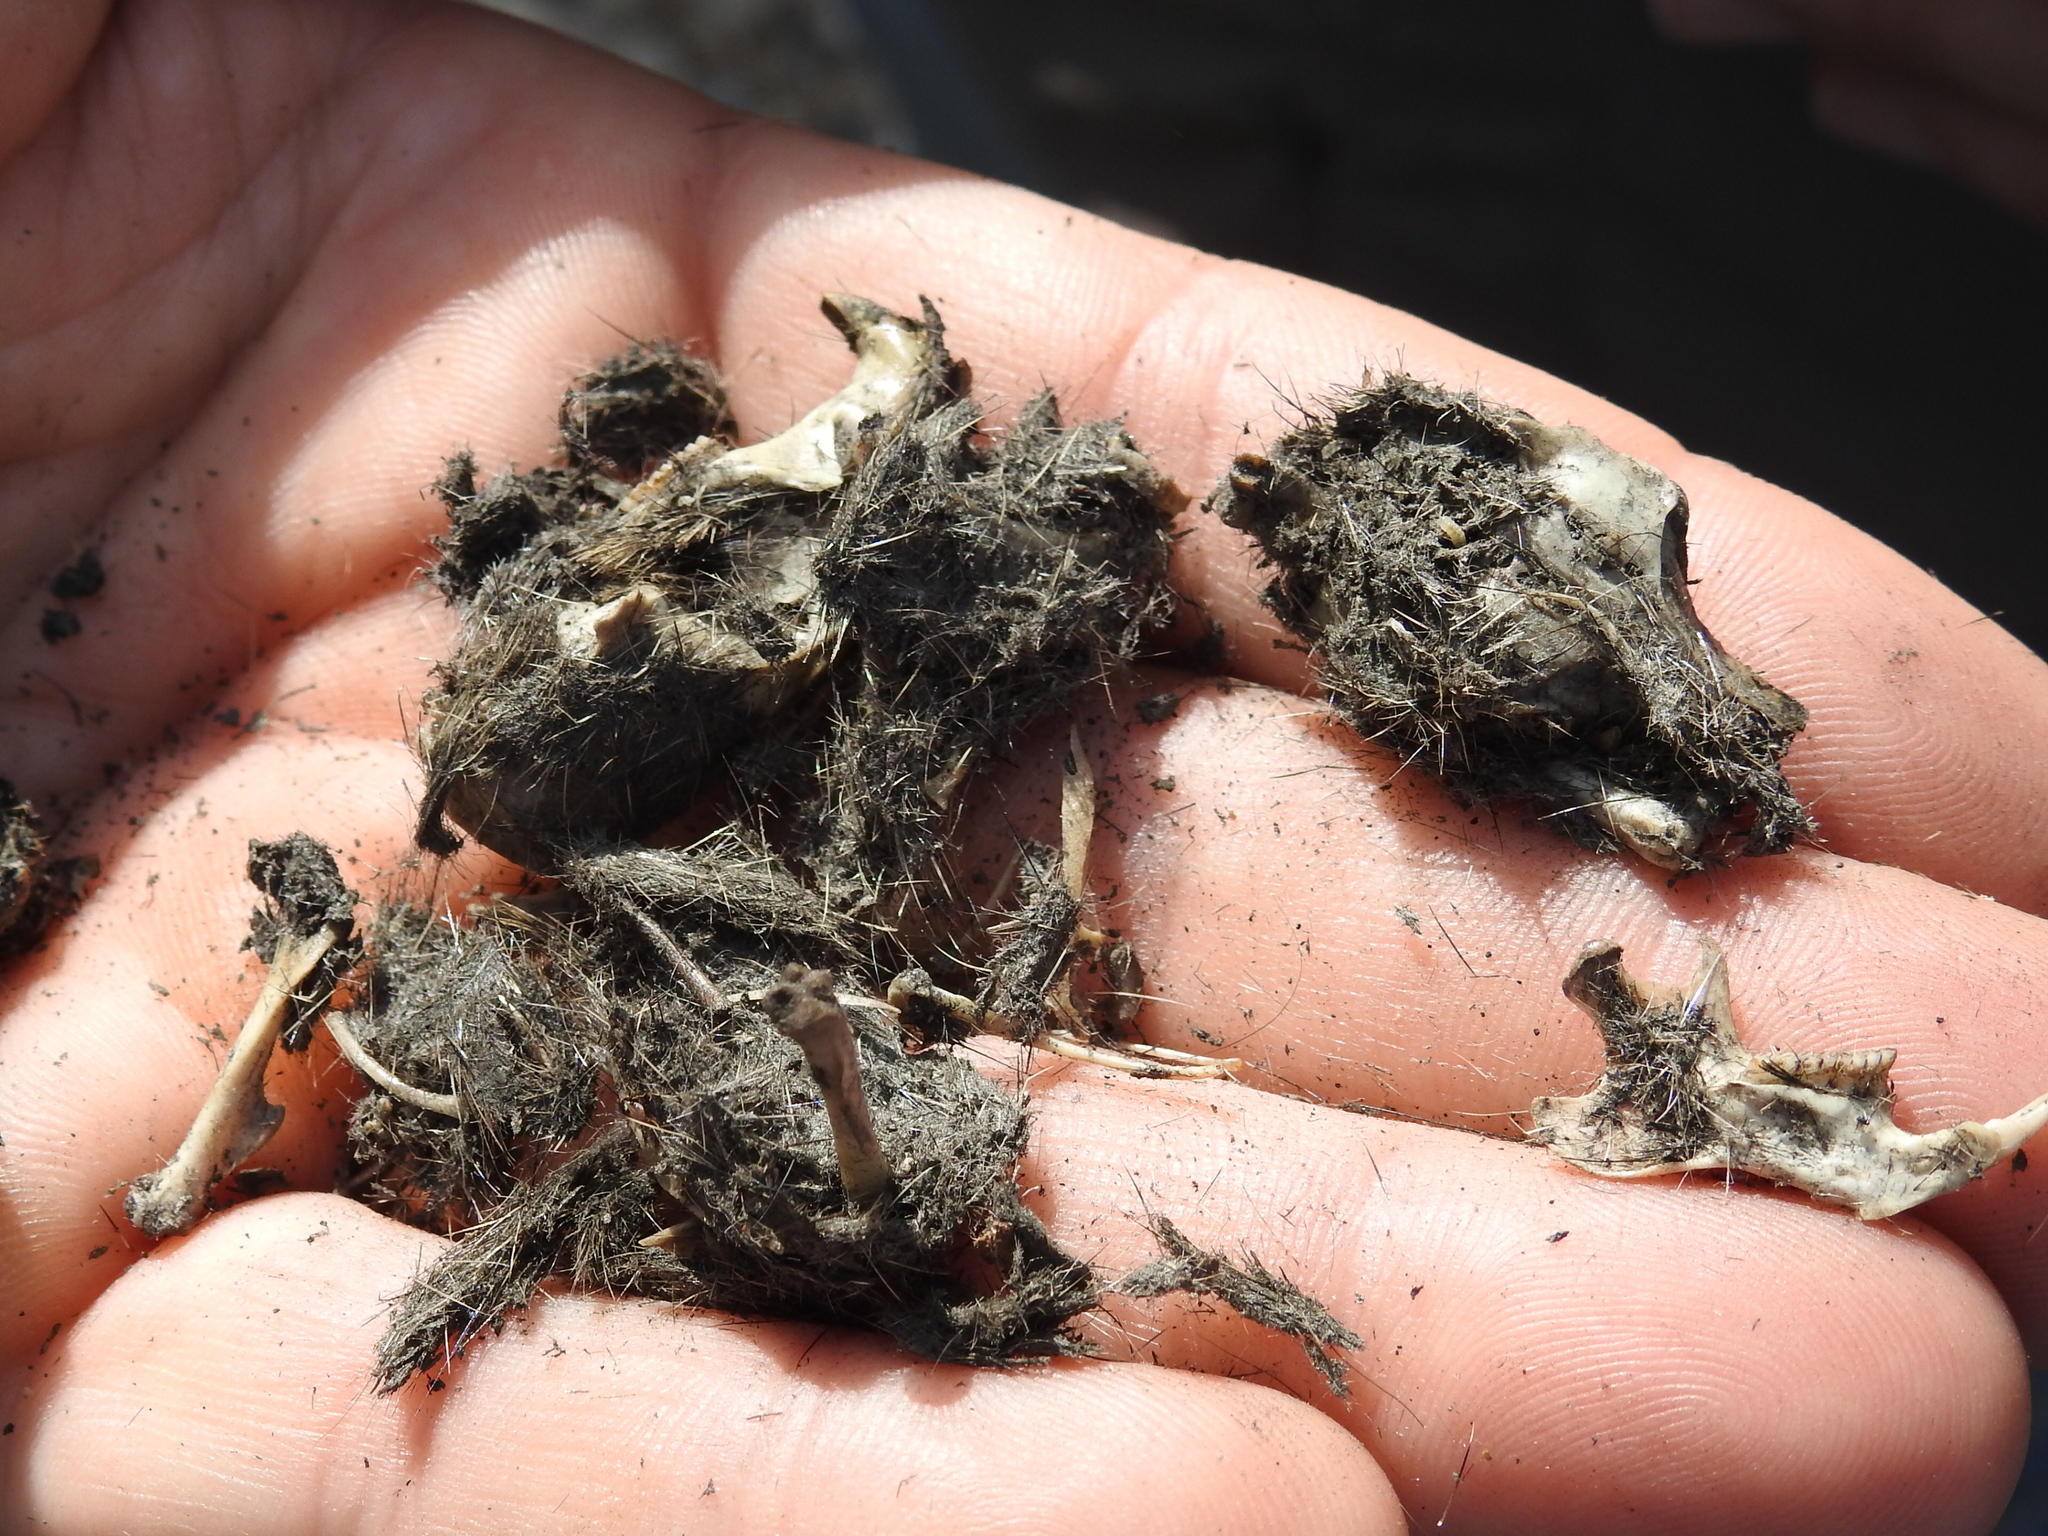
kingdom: Animalia
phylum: Chordata
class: Mammalia
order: Rodentia
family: Cricetidae
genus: Sigmodon
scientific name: Sigmodon hispidus
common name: Hispid cotton rat
